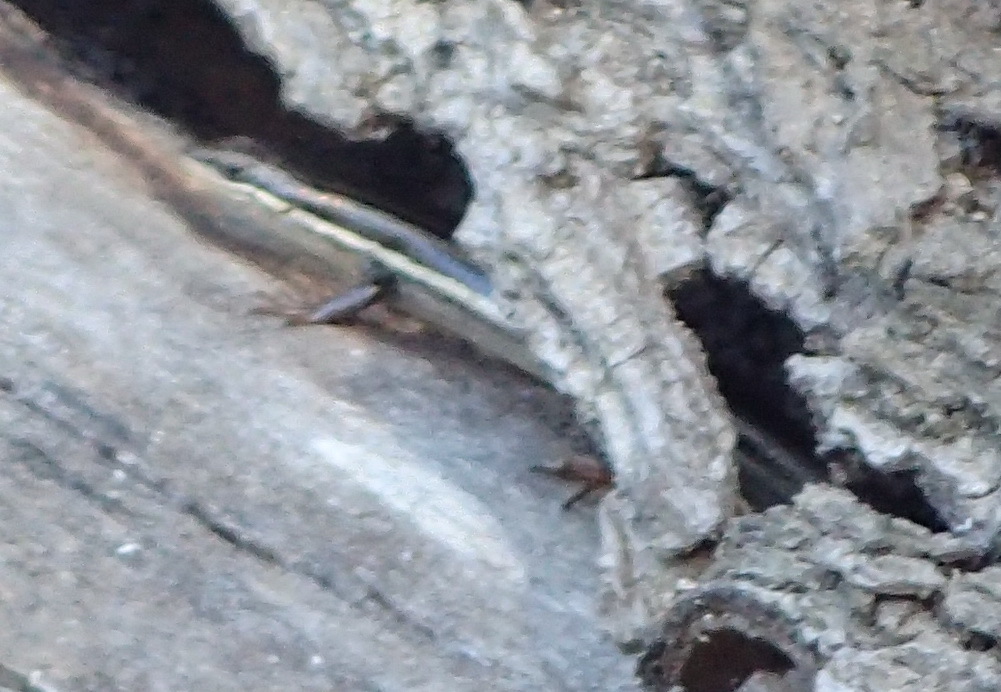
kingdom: Animalia
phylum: Chordata
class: Squamata
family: Scincidae
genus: Trachylepis
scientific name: Trachylepis homalocephala
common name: Red-sided skink
